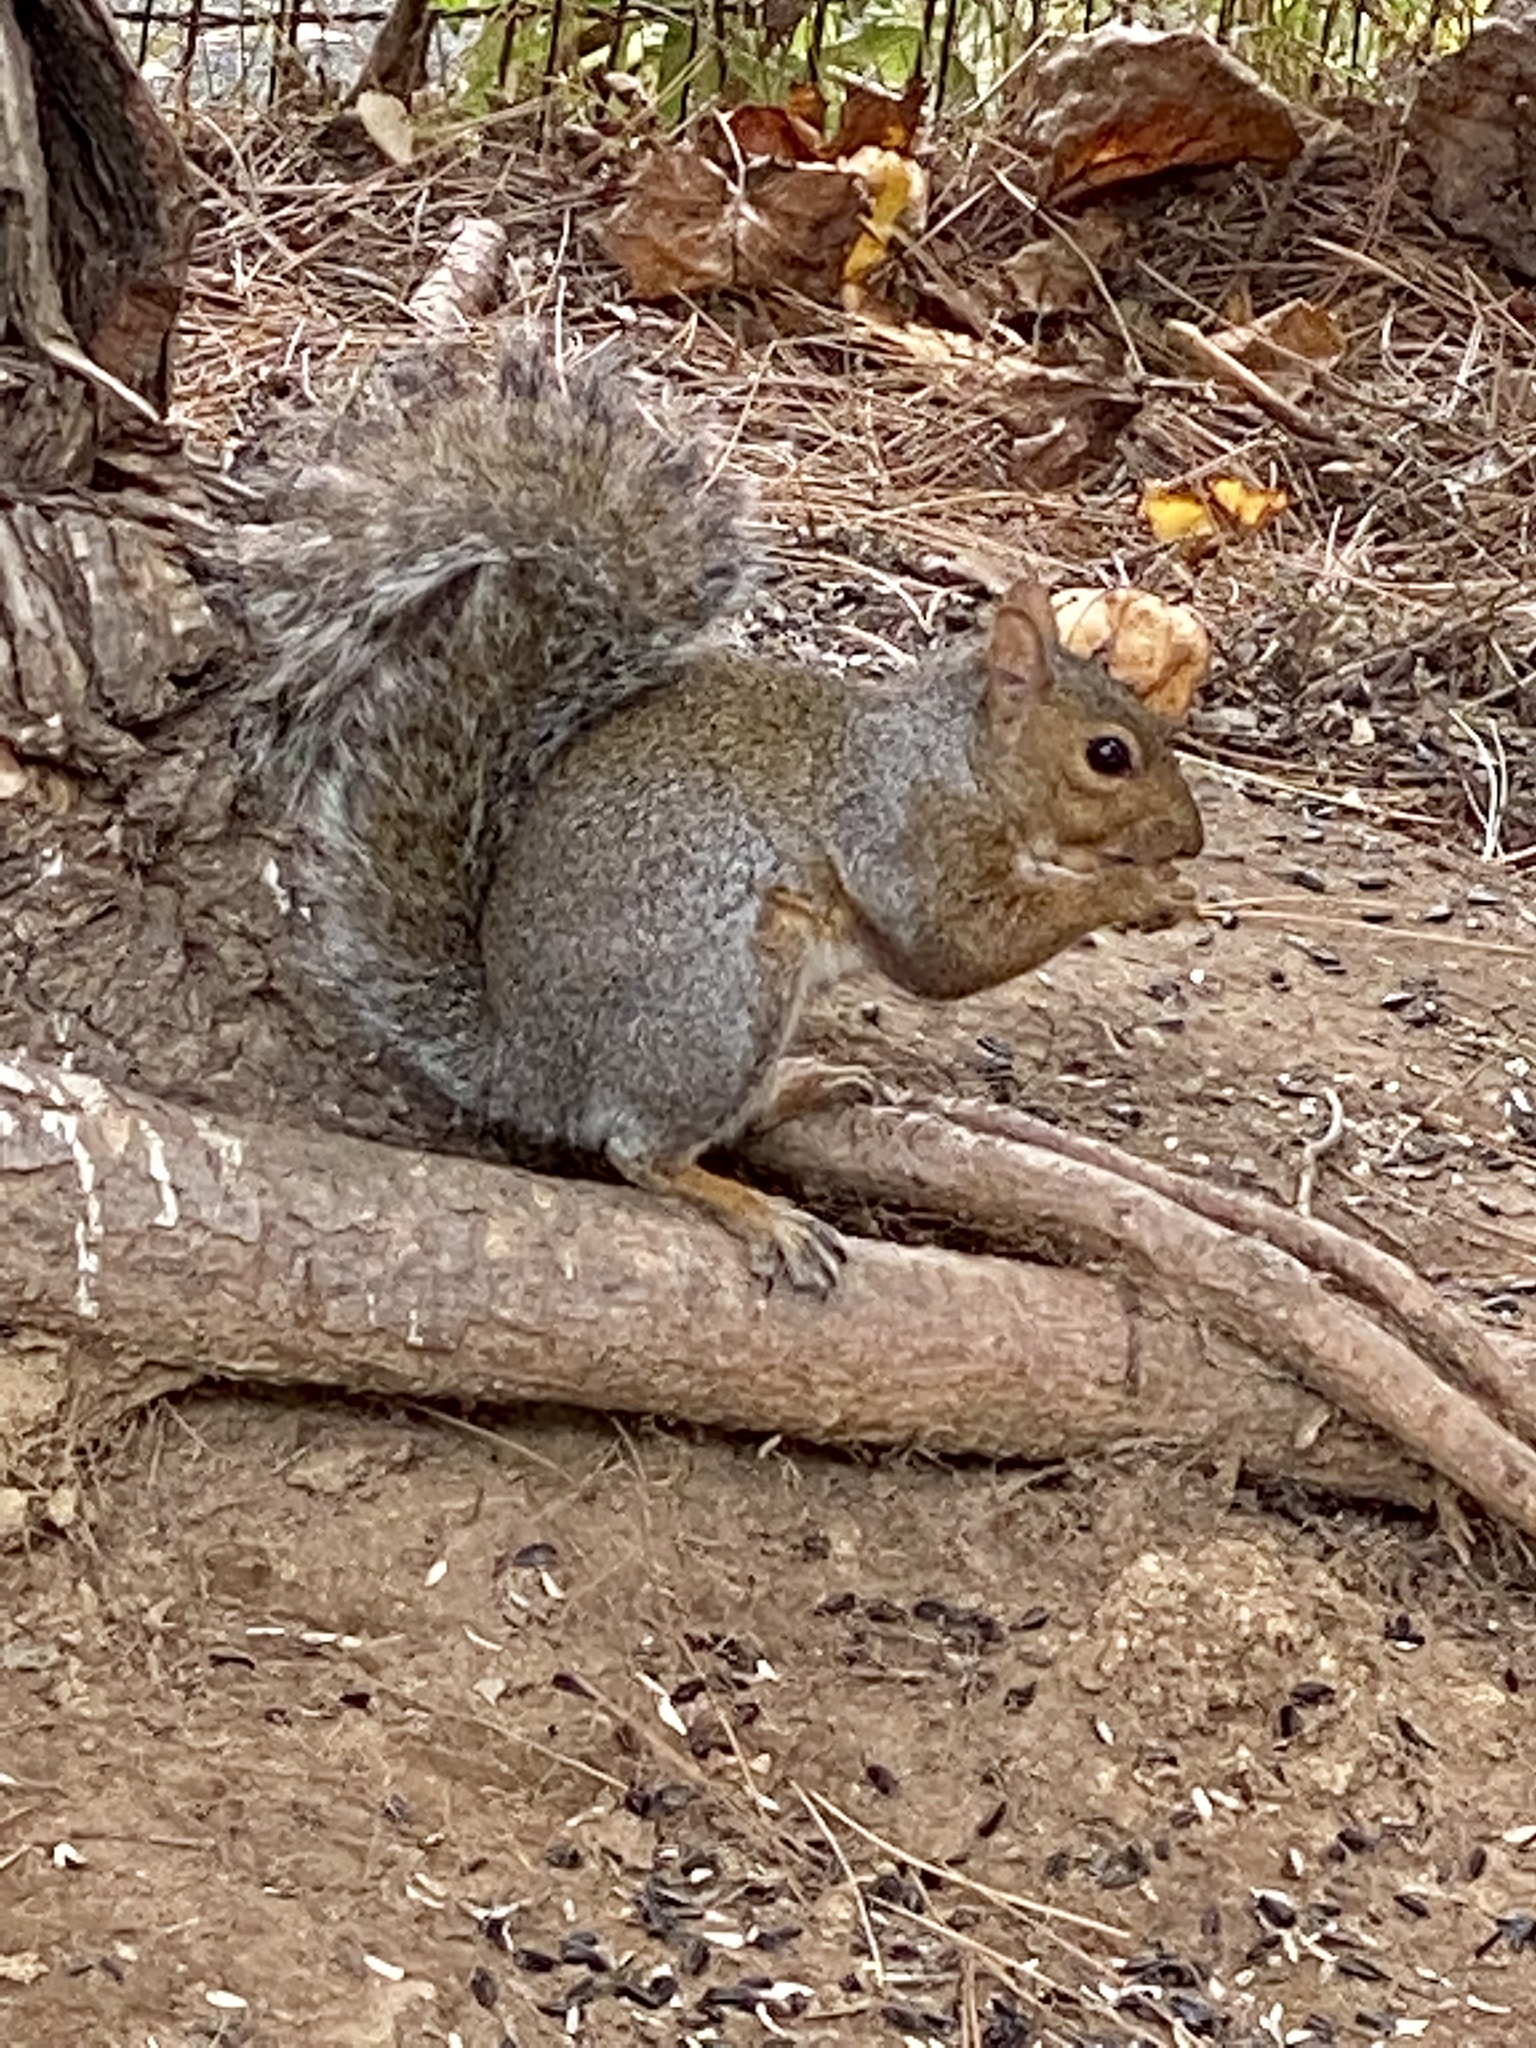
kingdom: Animalia
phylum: Chordata
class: Mammalia
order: Rodentia
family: Sciuridae
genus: Sciurus
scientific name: Sciurus carolinensis
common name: Eastern gray squirrel
